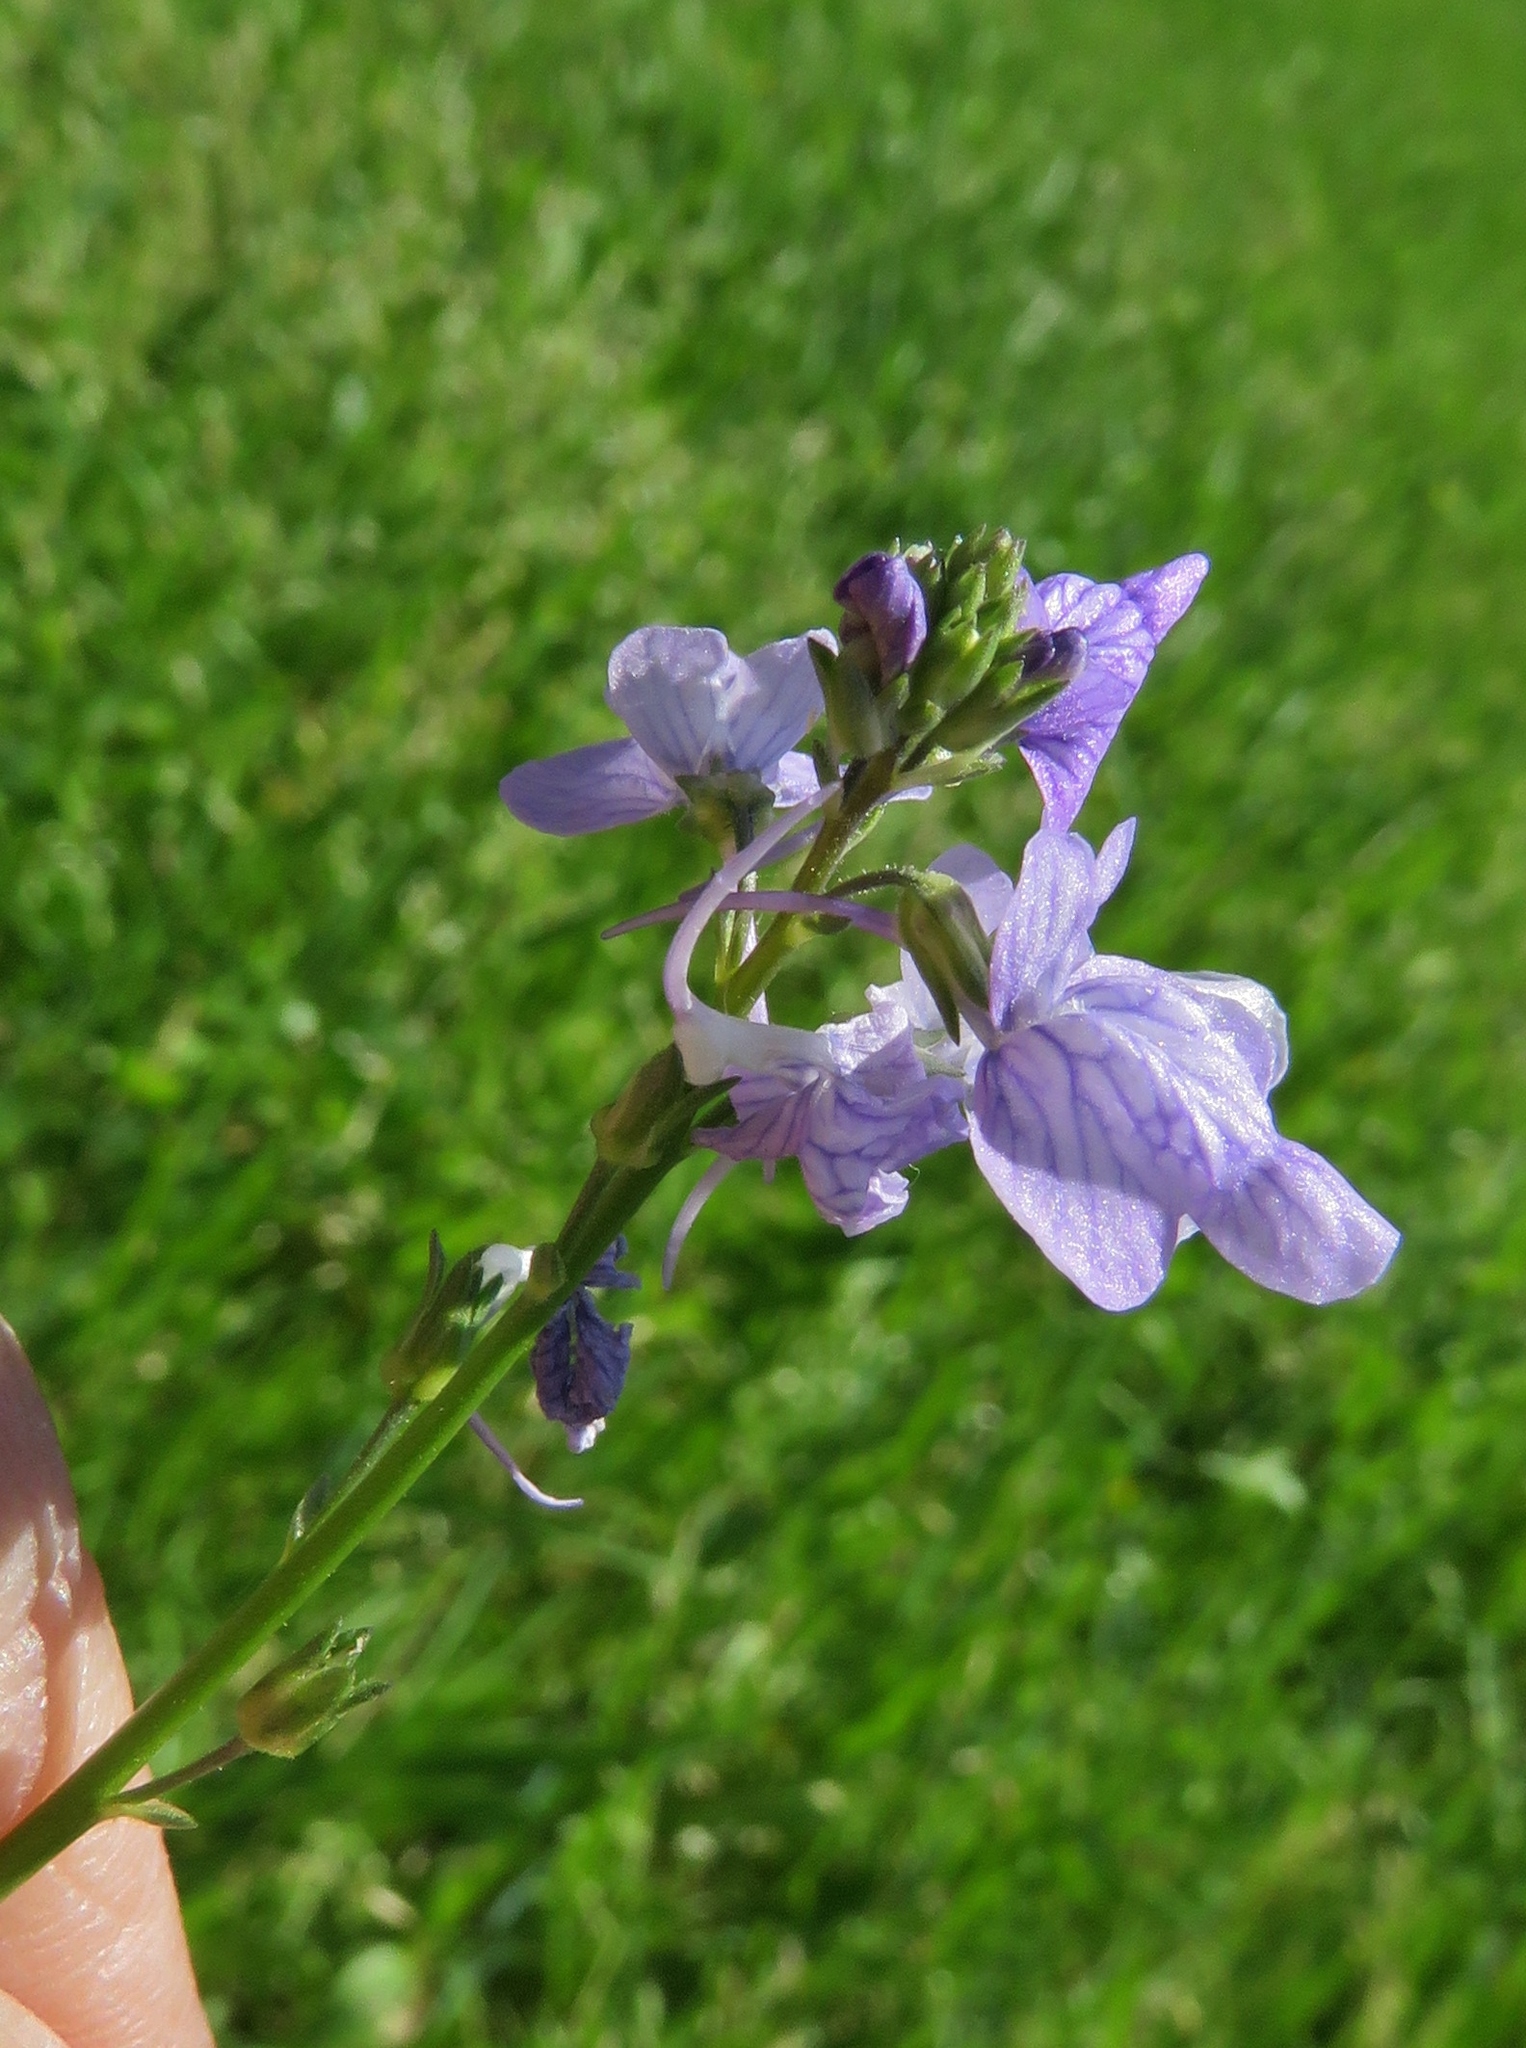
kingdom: Plantae
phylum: Tracheophyta
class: Magnoliopsida
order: Lamiales
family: Plantaginaceae
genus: Nuttallanthus
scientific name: Nuttallanthus texanus
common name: Texas toadflax
